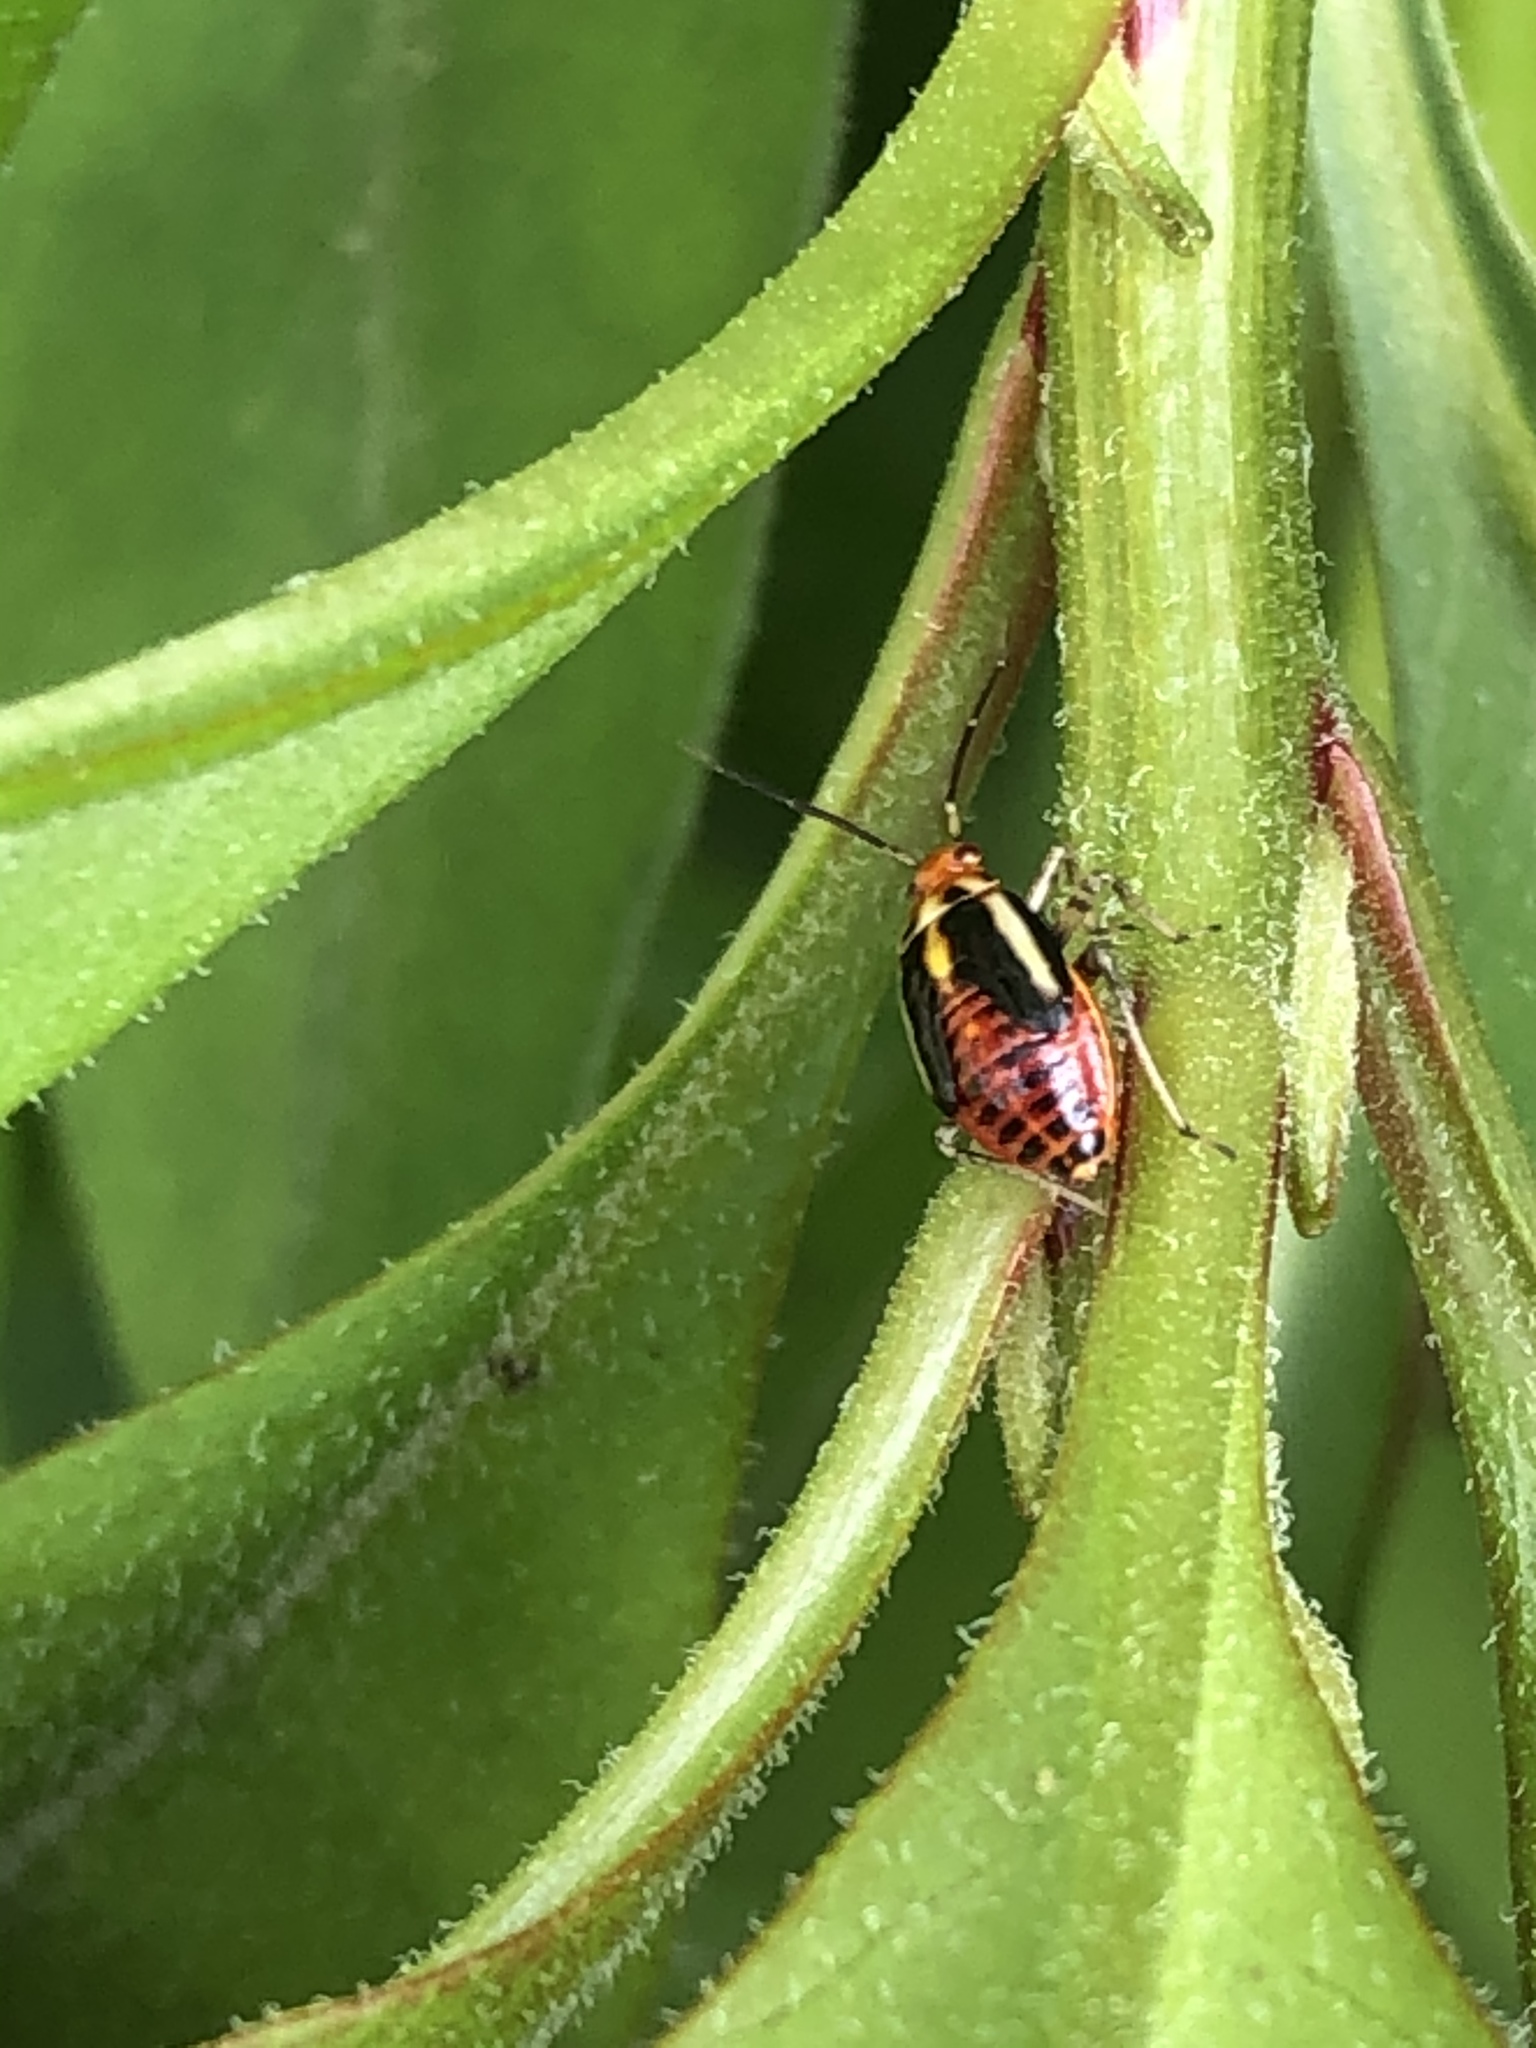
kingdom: Animalia
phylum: Arthropoda
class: Insecta
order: Hemiptera
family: Miridae
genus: Poecilocapsus
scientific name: Poecilocapsus lineatus
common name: Four-lined plant bug
